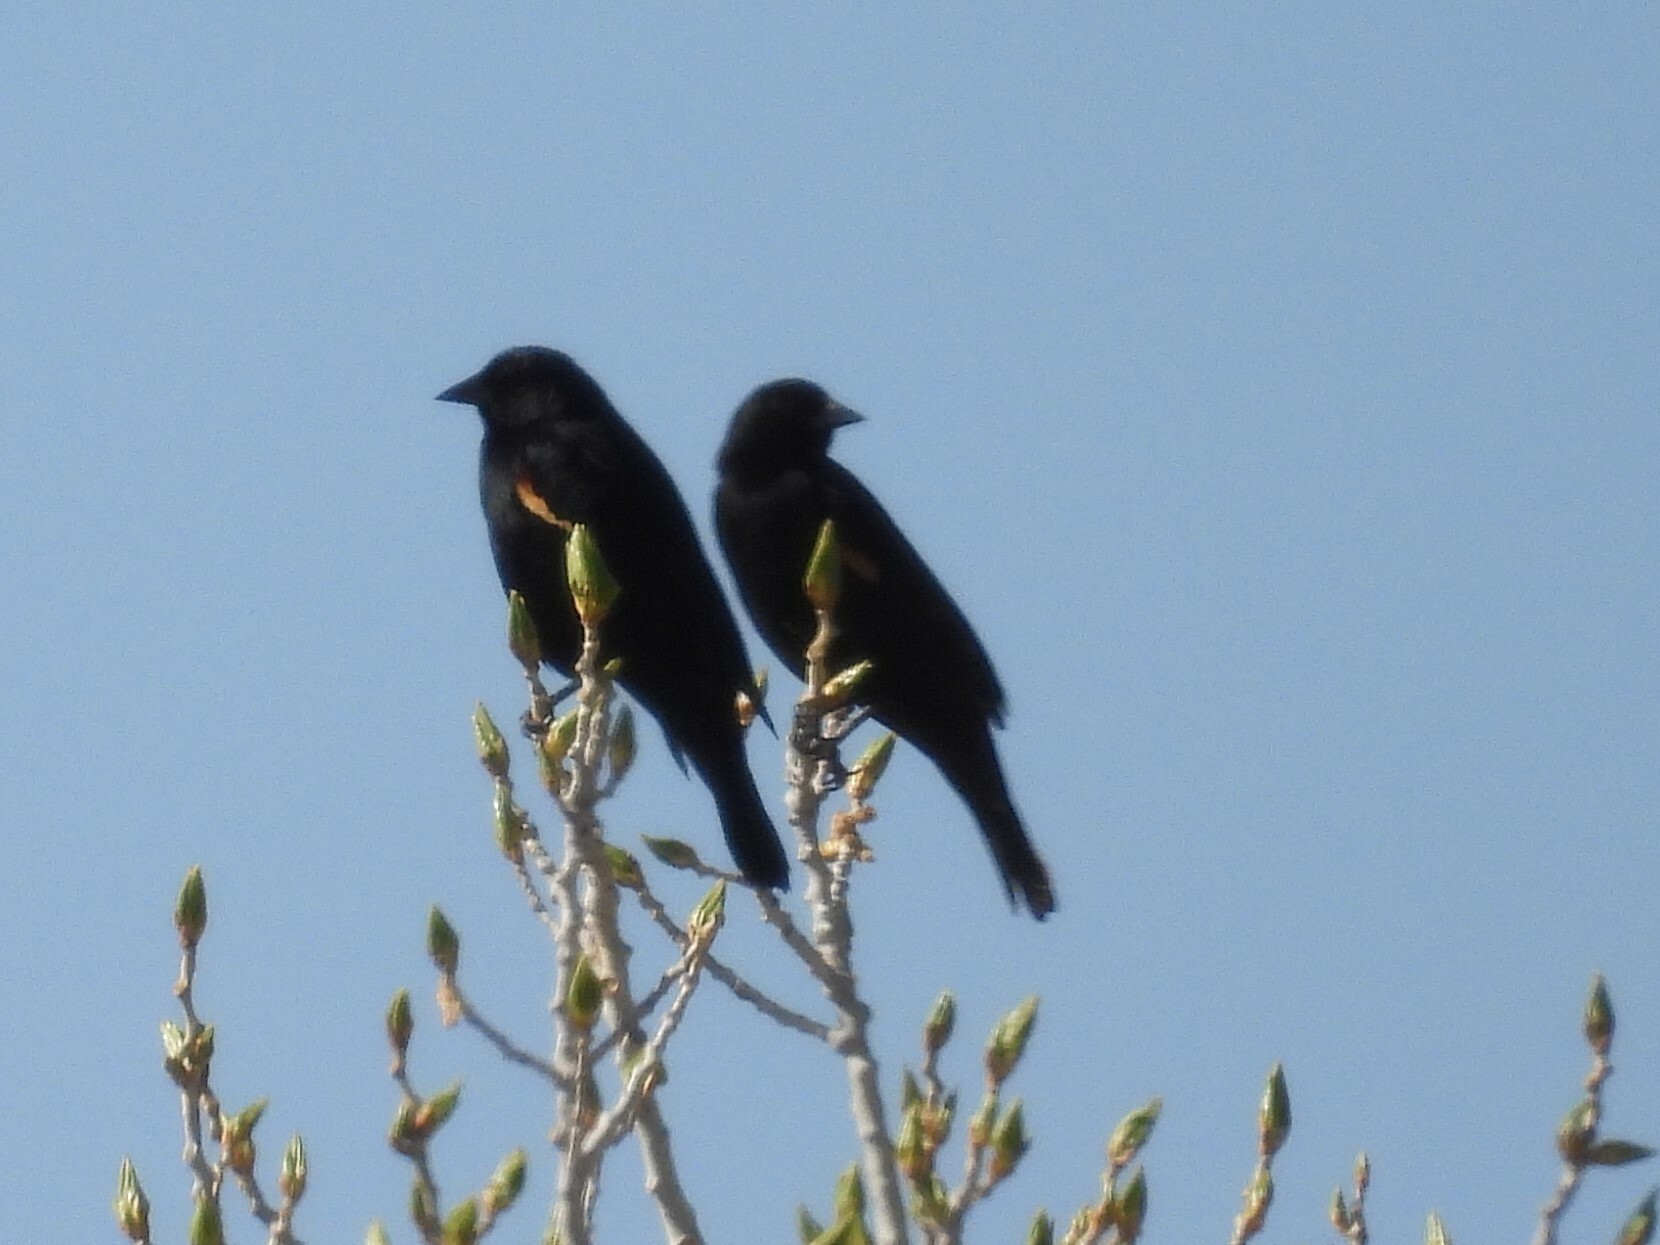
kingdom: Animalia
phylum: Chordata
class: Aves
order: Passeriformes
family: Icteridae
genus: Agelaius
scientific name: Agelaius phoeniceus
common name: Red-winged blackbird
